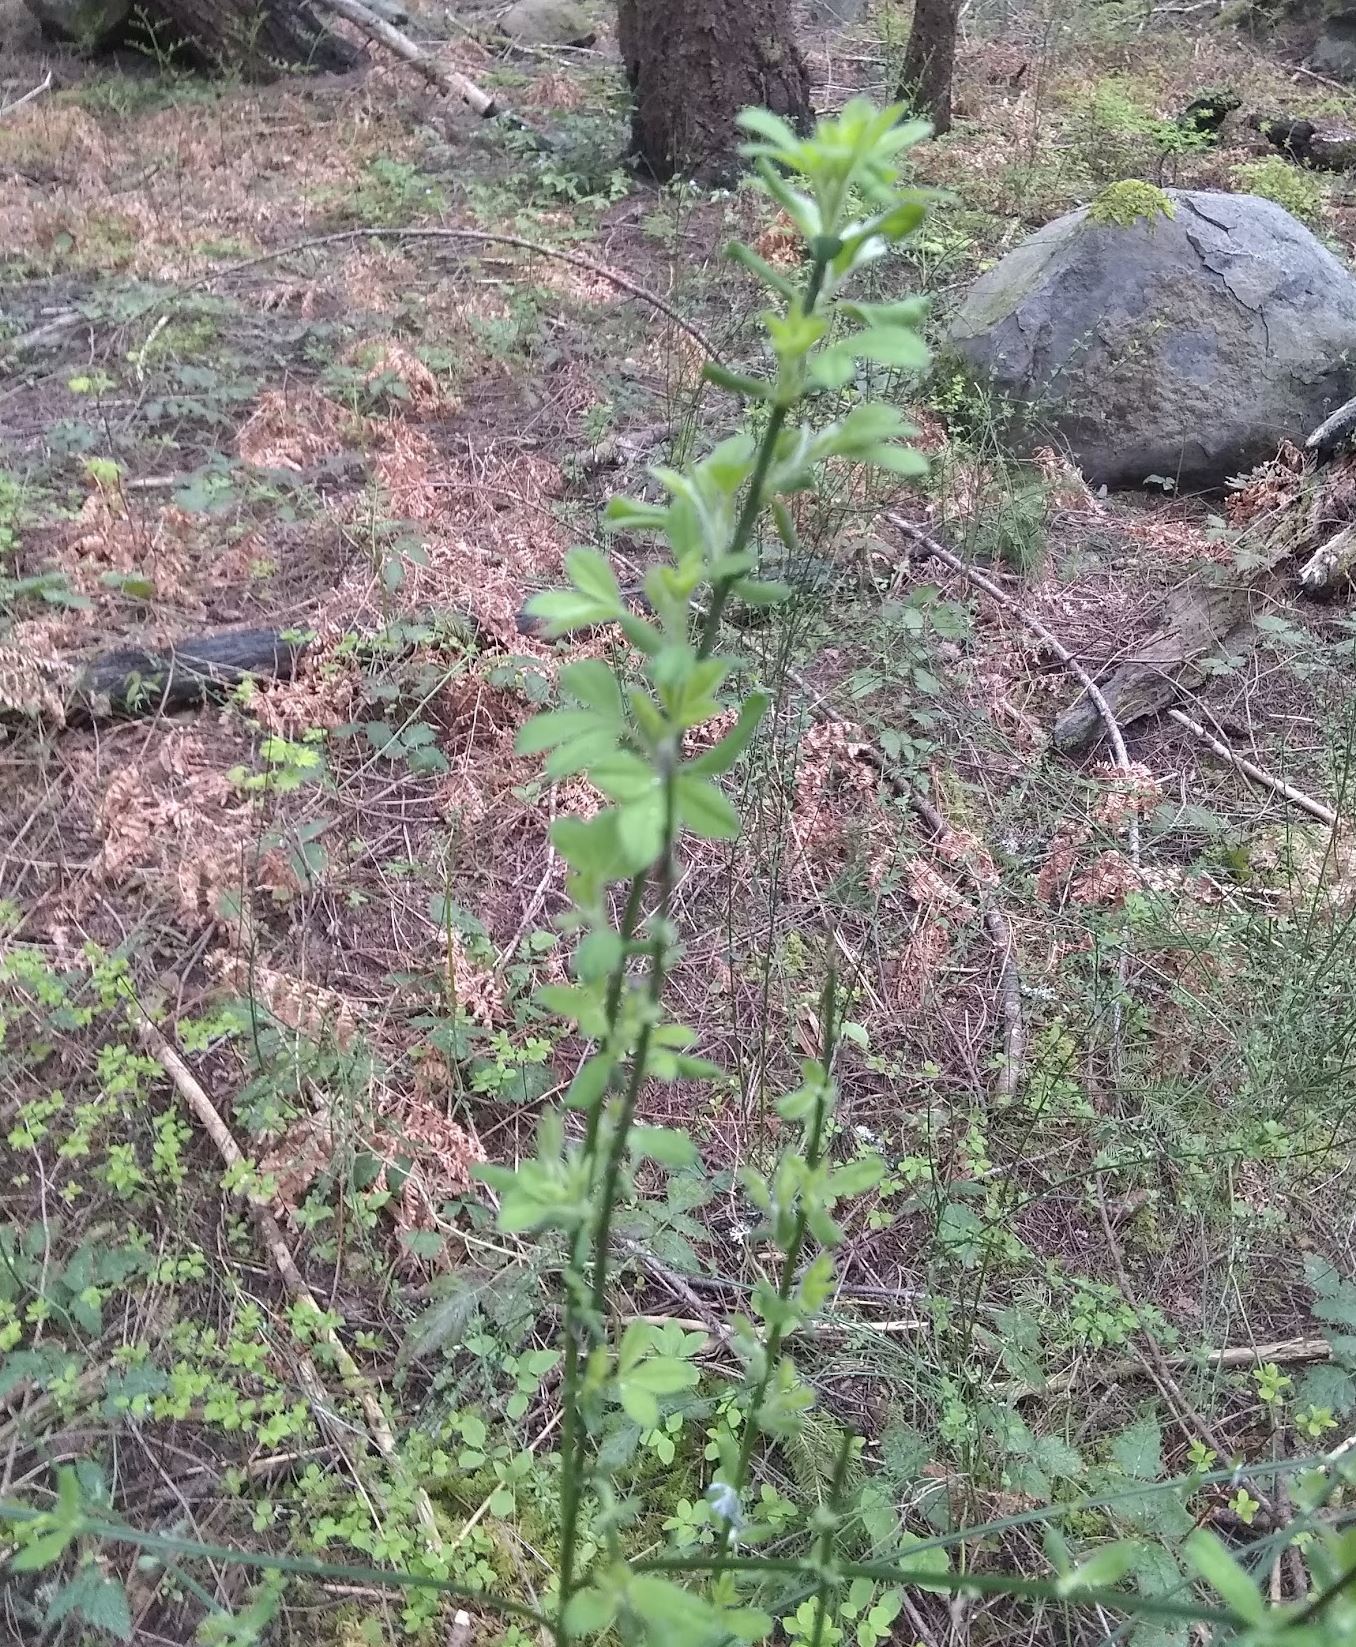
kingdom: Plantae
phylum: Tracheophyta
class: Magnoliopsida
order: Fabales
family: Fabaceae
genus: Cytisus
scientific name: Cytisus scoparius
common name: Scotch broom
